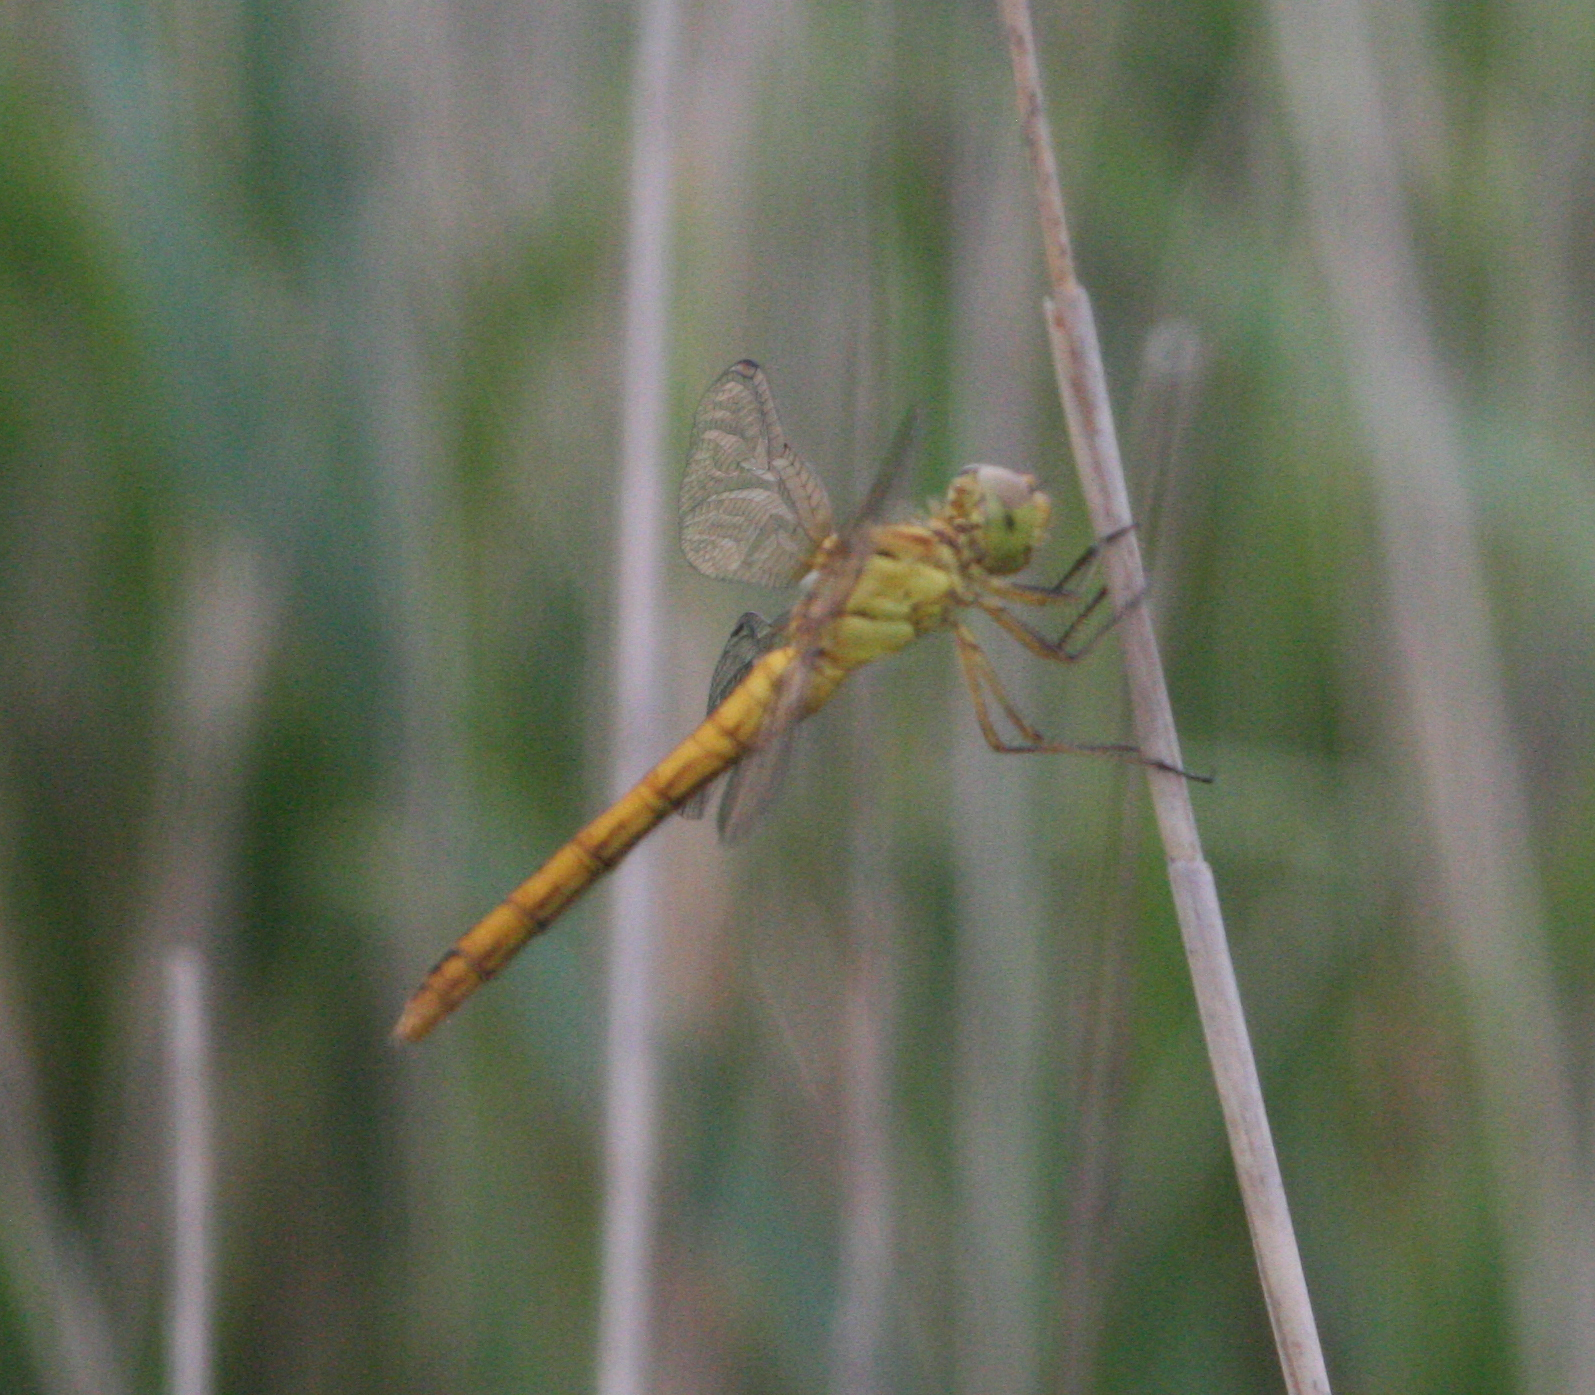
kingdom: Animalia
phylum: Arthropoda
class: Insecta
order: Odonata
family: Libellulidae
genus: Sympetrum
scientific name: Sympetrum meridionale
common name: Southern darter
